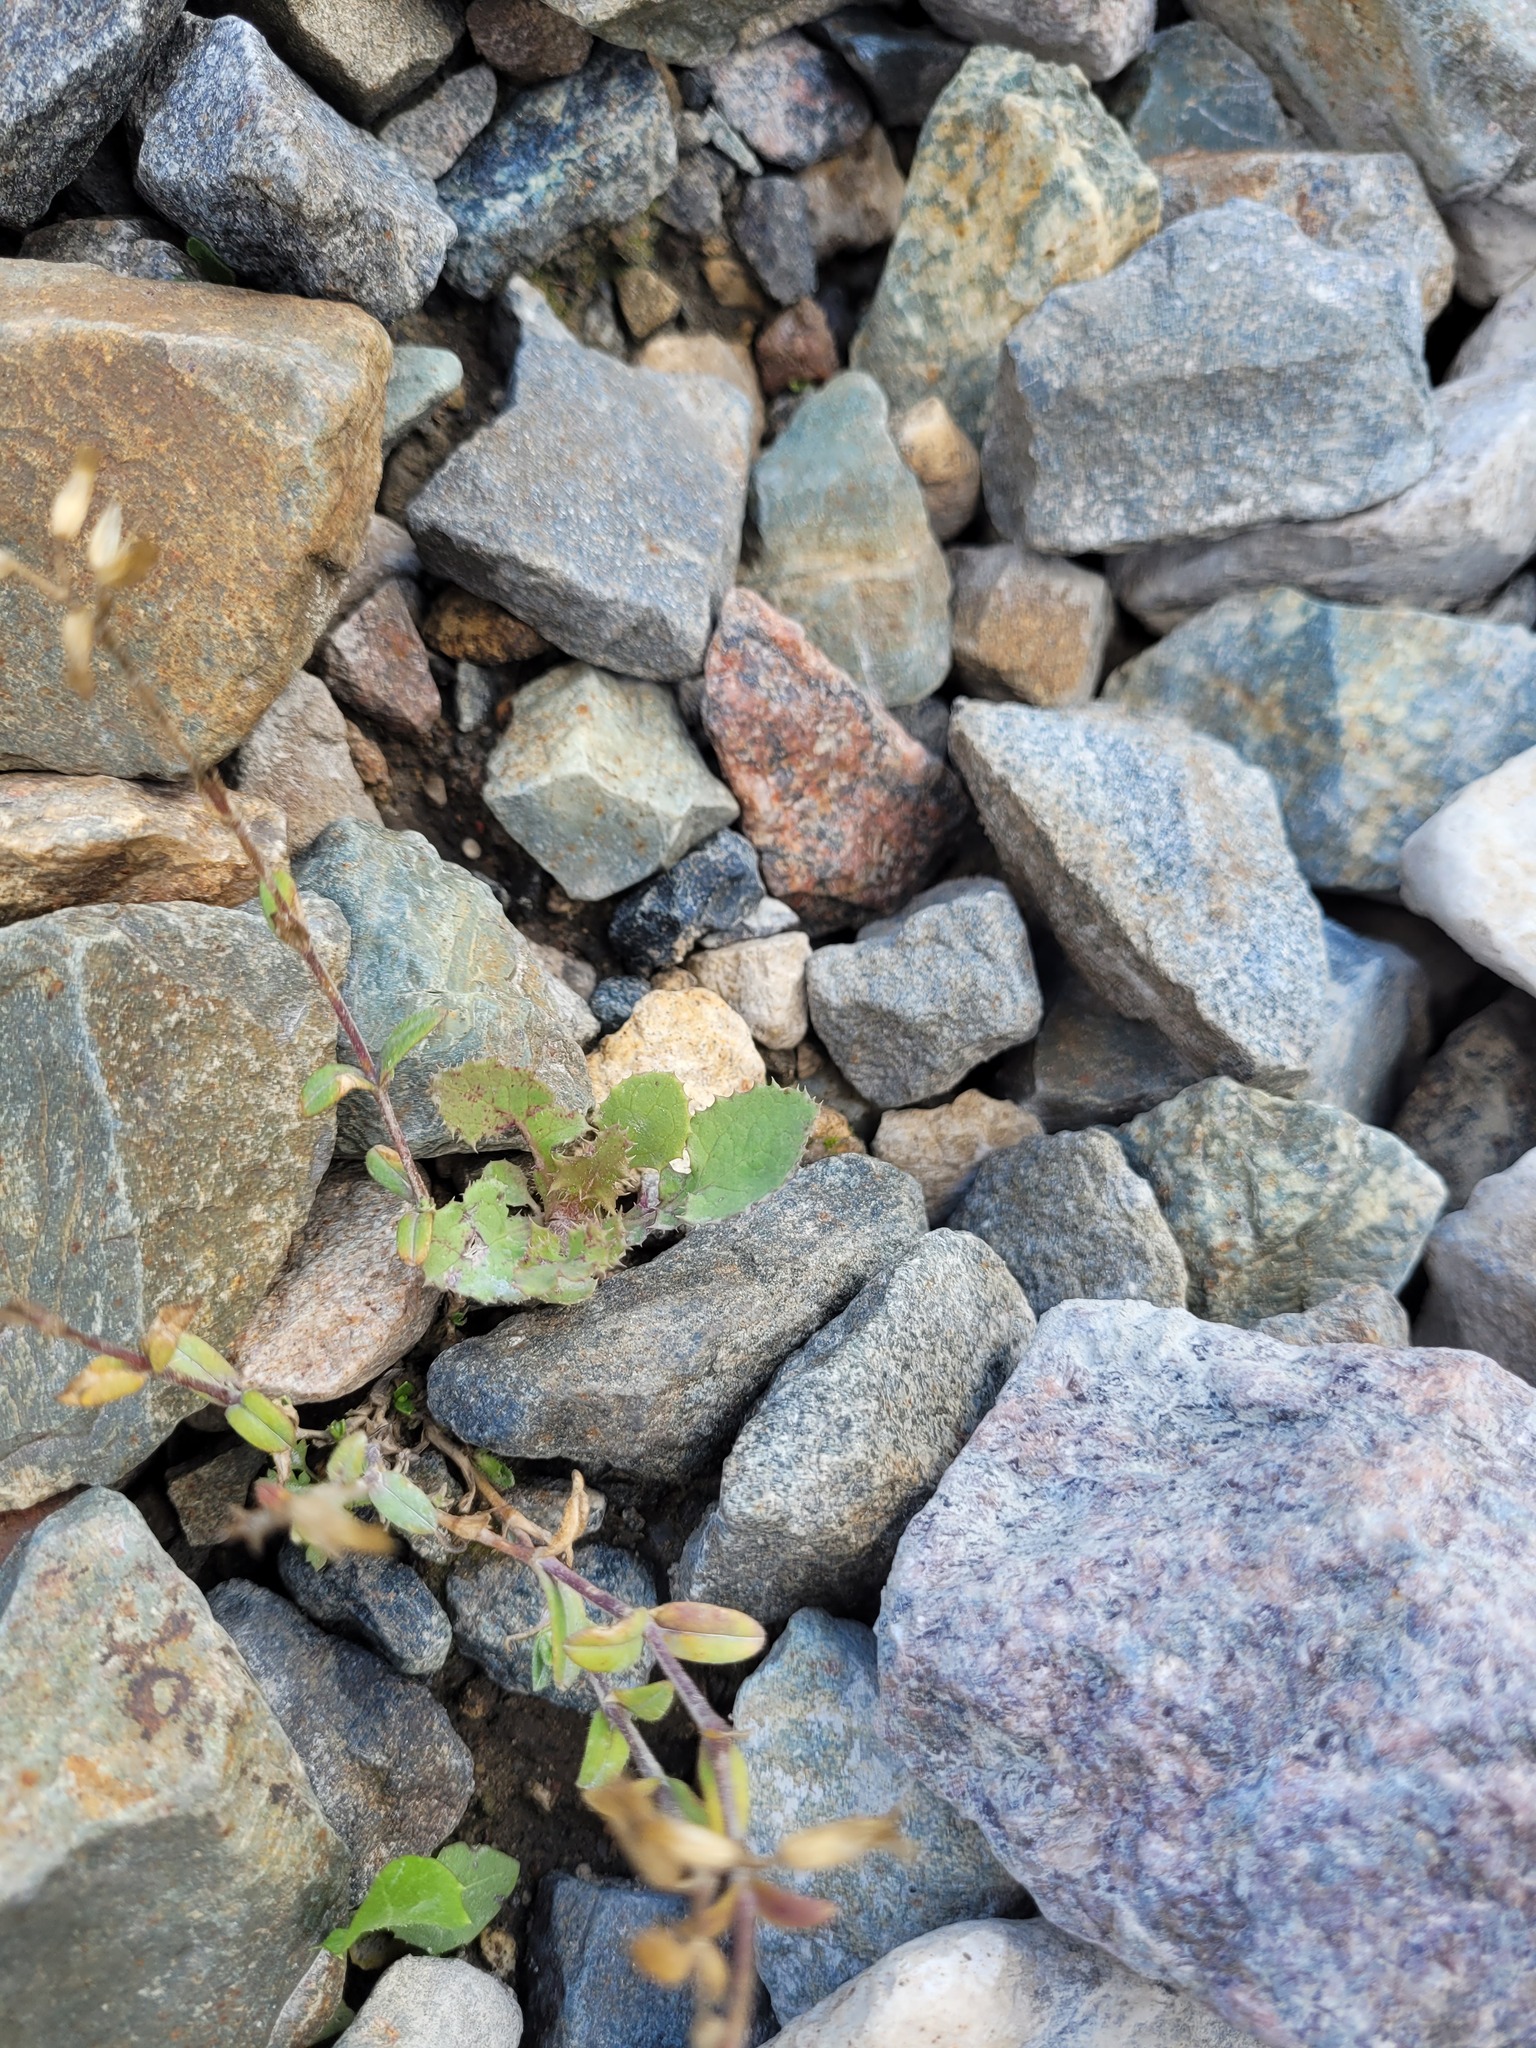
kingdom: Plantae
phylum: Tracheophyta
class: Magnoliopsida
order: Asterales
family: Asteraceae
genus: Sonchus
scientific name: Sonchus oleraceus
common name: Common sowthistle
